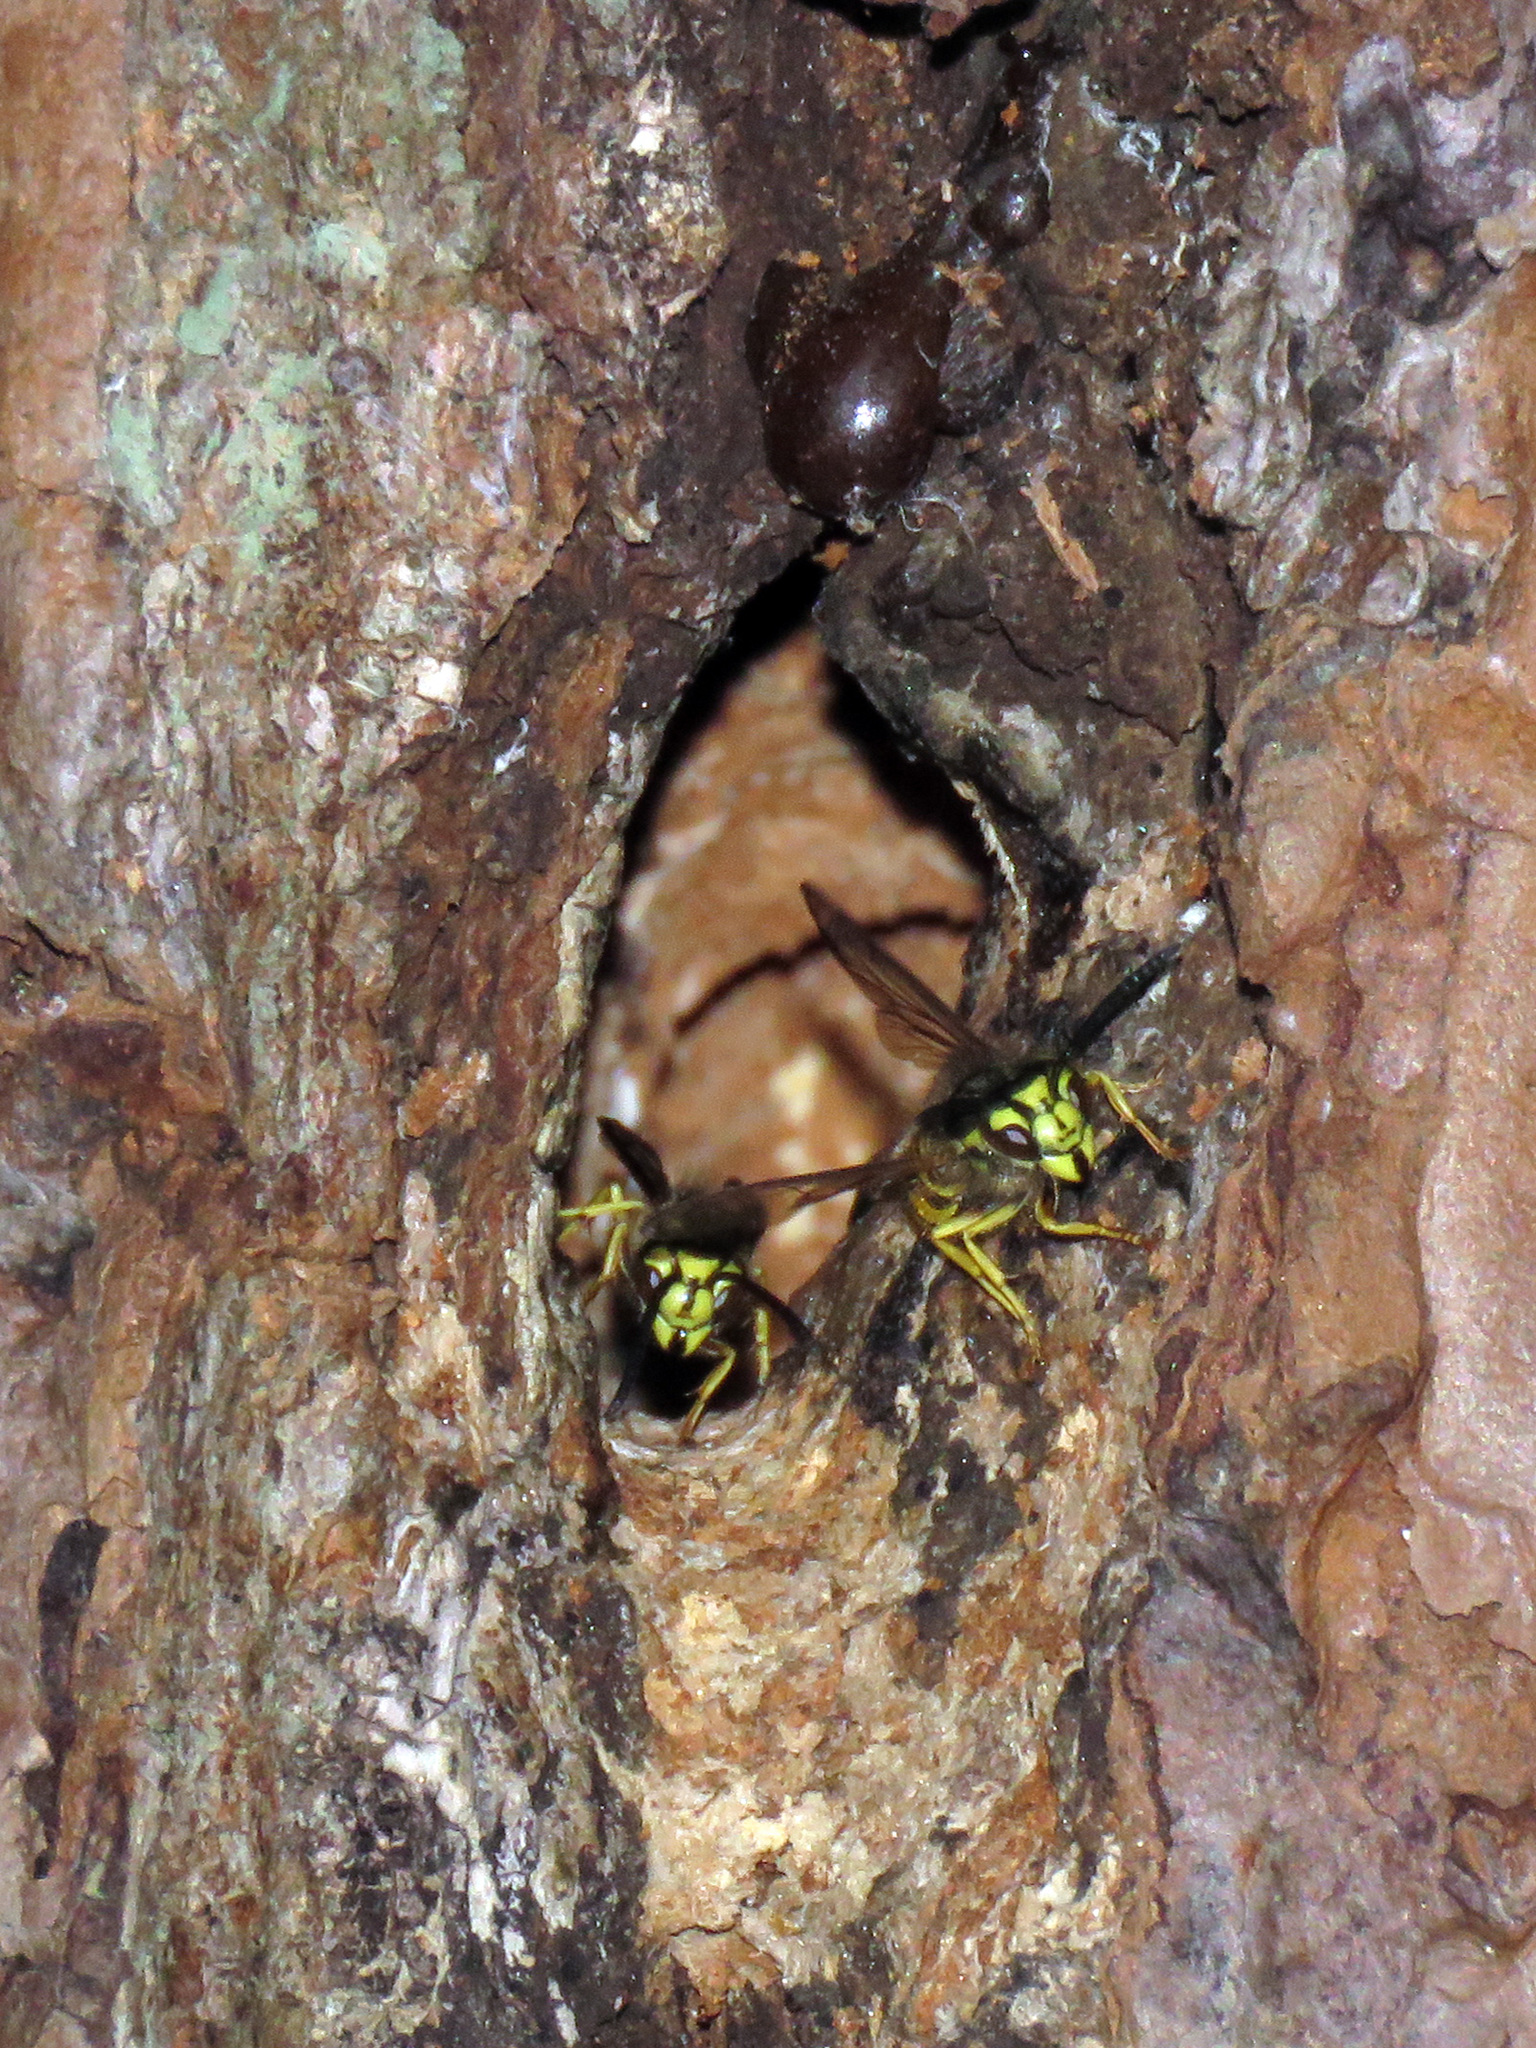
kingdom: Animalia
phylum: Arthropoda
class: Insecta
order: Hymenoptera
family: Vespidae
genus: Vespula
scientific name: Vespula maculifrons
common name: Eastern yellowjacket
